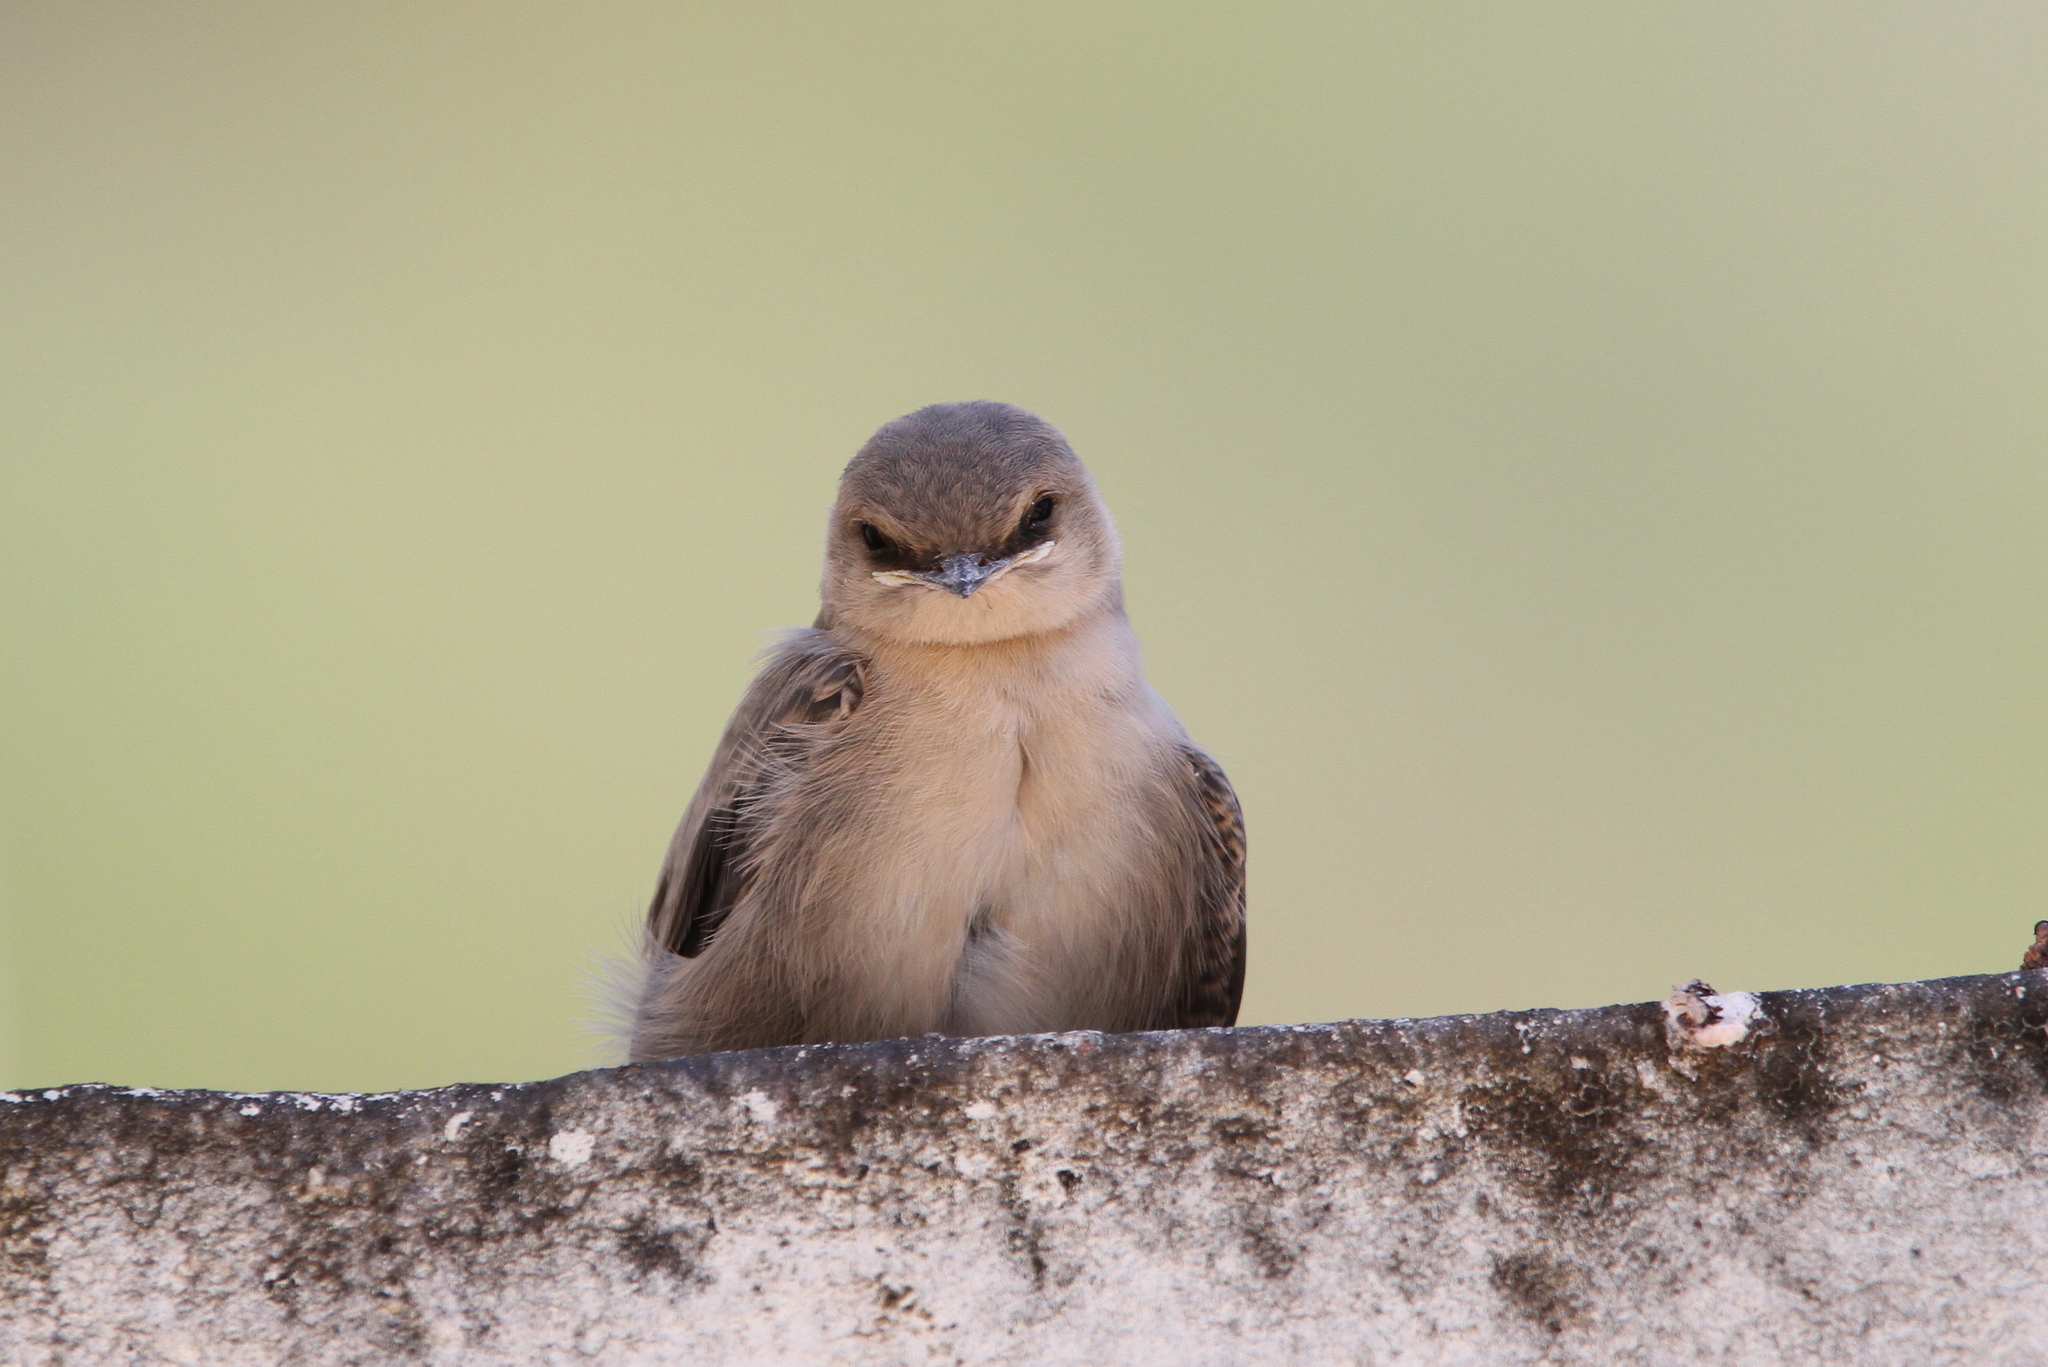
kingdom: Animalia
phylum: Chordata
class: Aves
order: Passeriformes
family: Hirundinidae
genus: Ptyonoprogne
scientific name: Ptyonoprogne fuligula
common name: Rock martin
